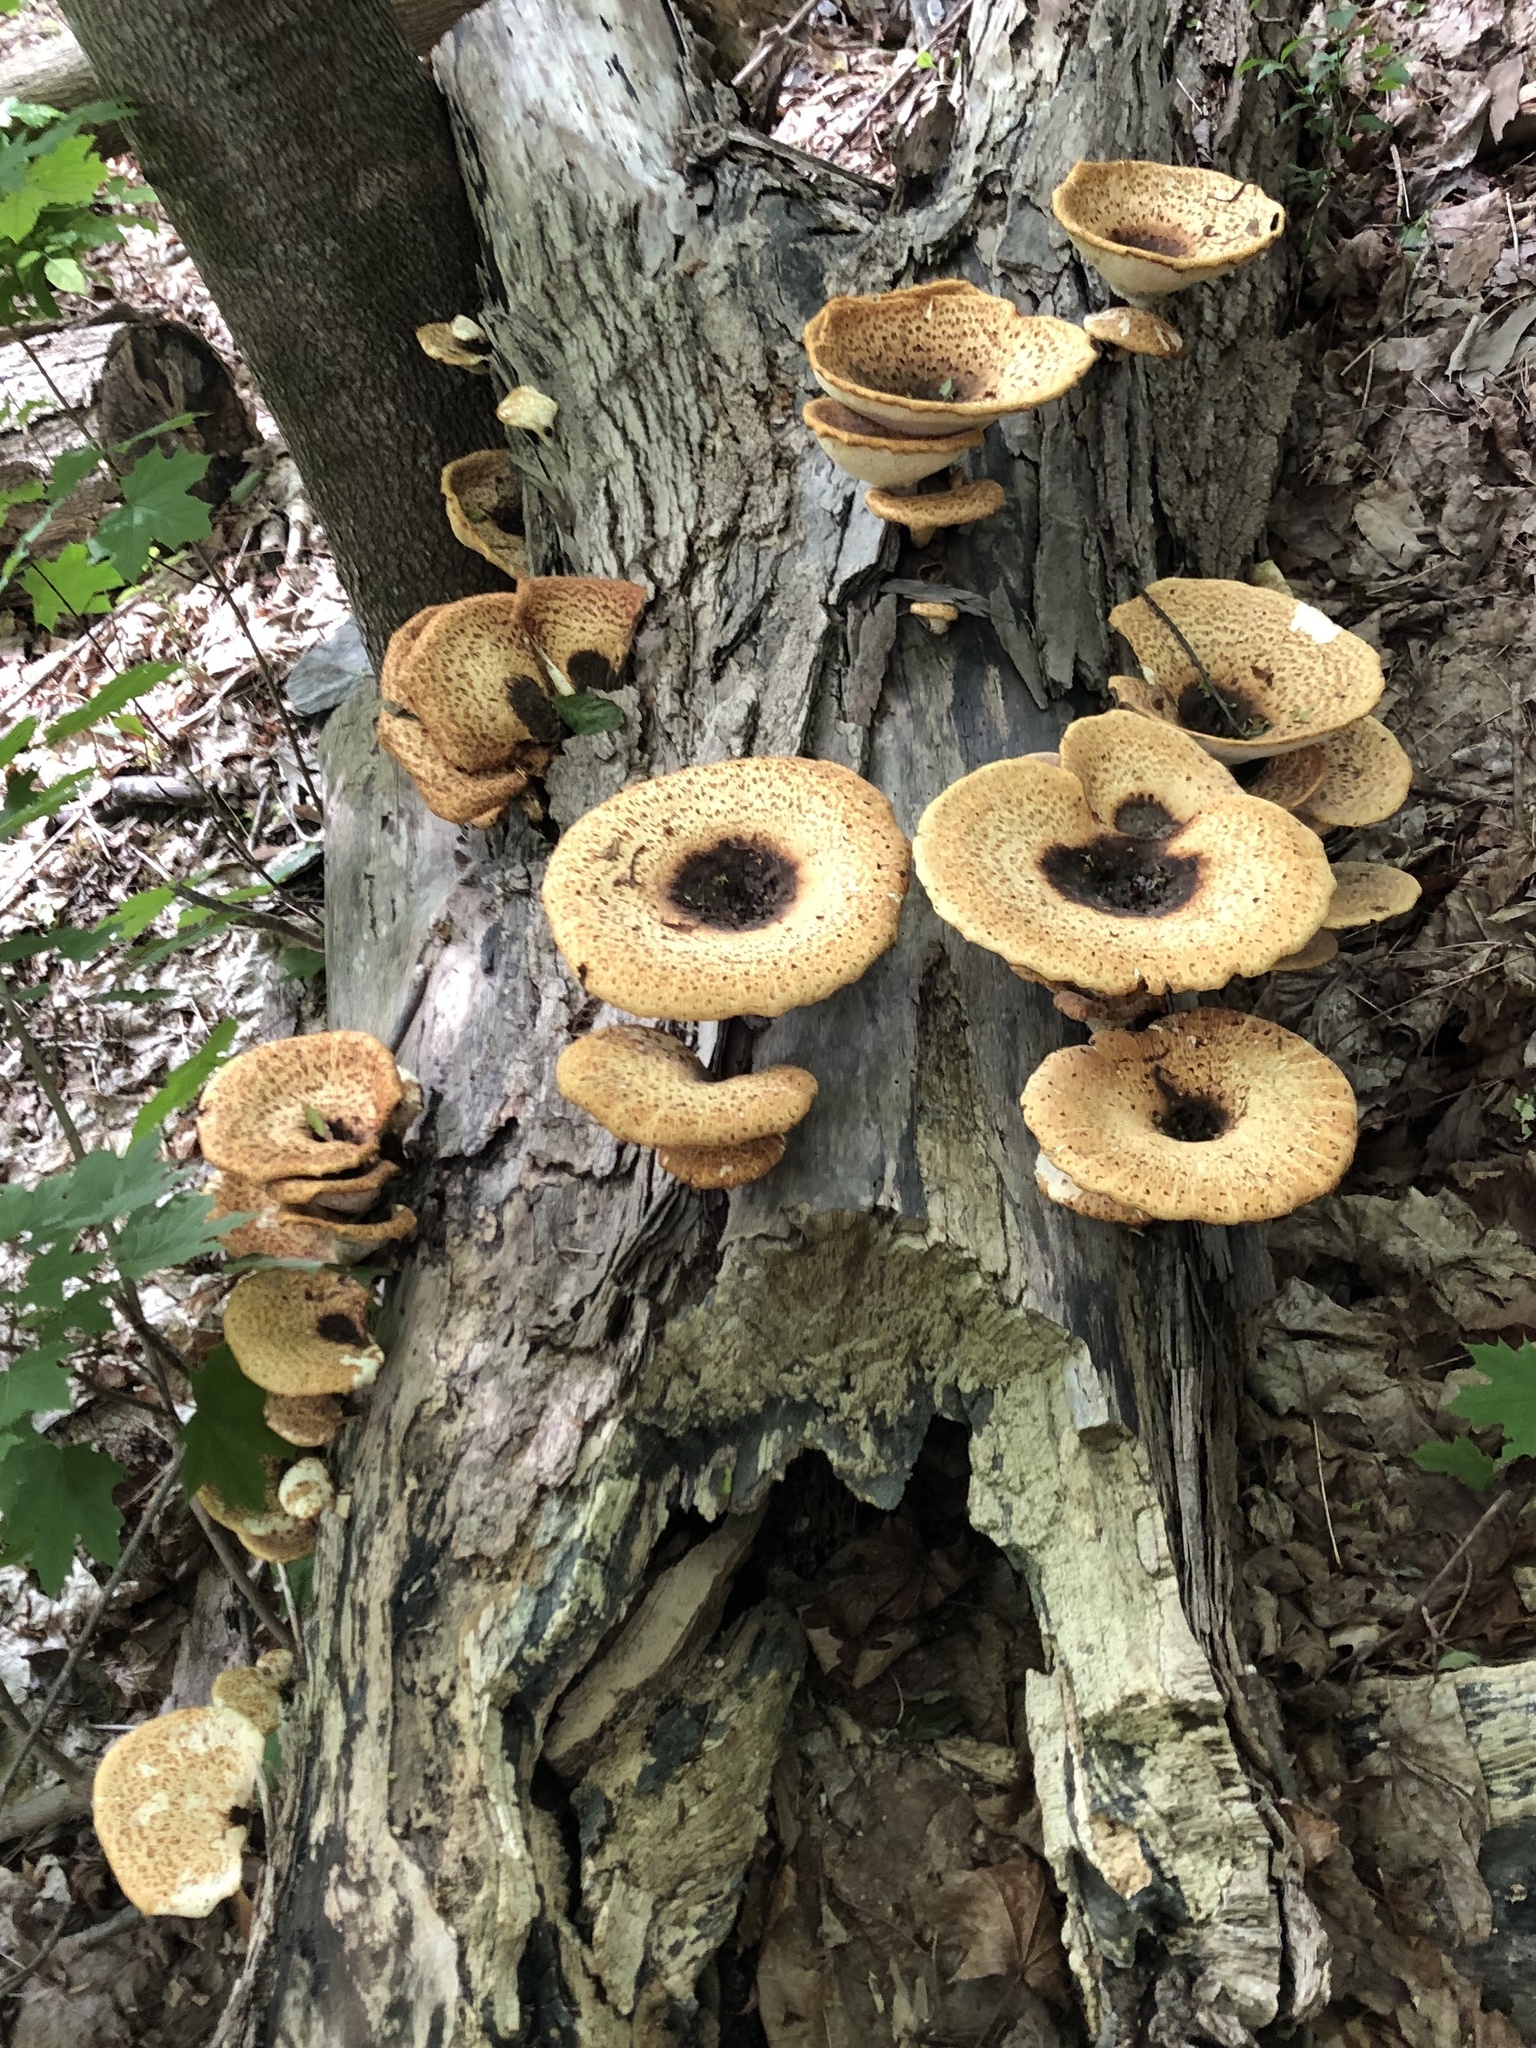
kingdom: Fungi
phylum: Basidiomycota
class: Agaricomycetes
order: Polyporales
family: Polyporaceae
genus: Cerioporus
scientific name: Cerioporus squamosus
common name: Dryad's saddle
